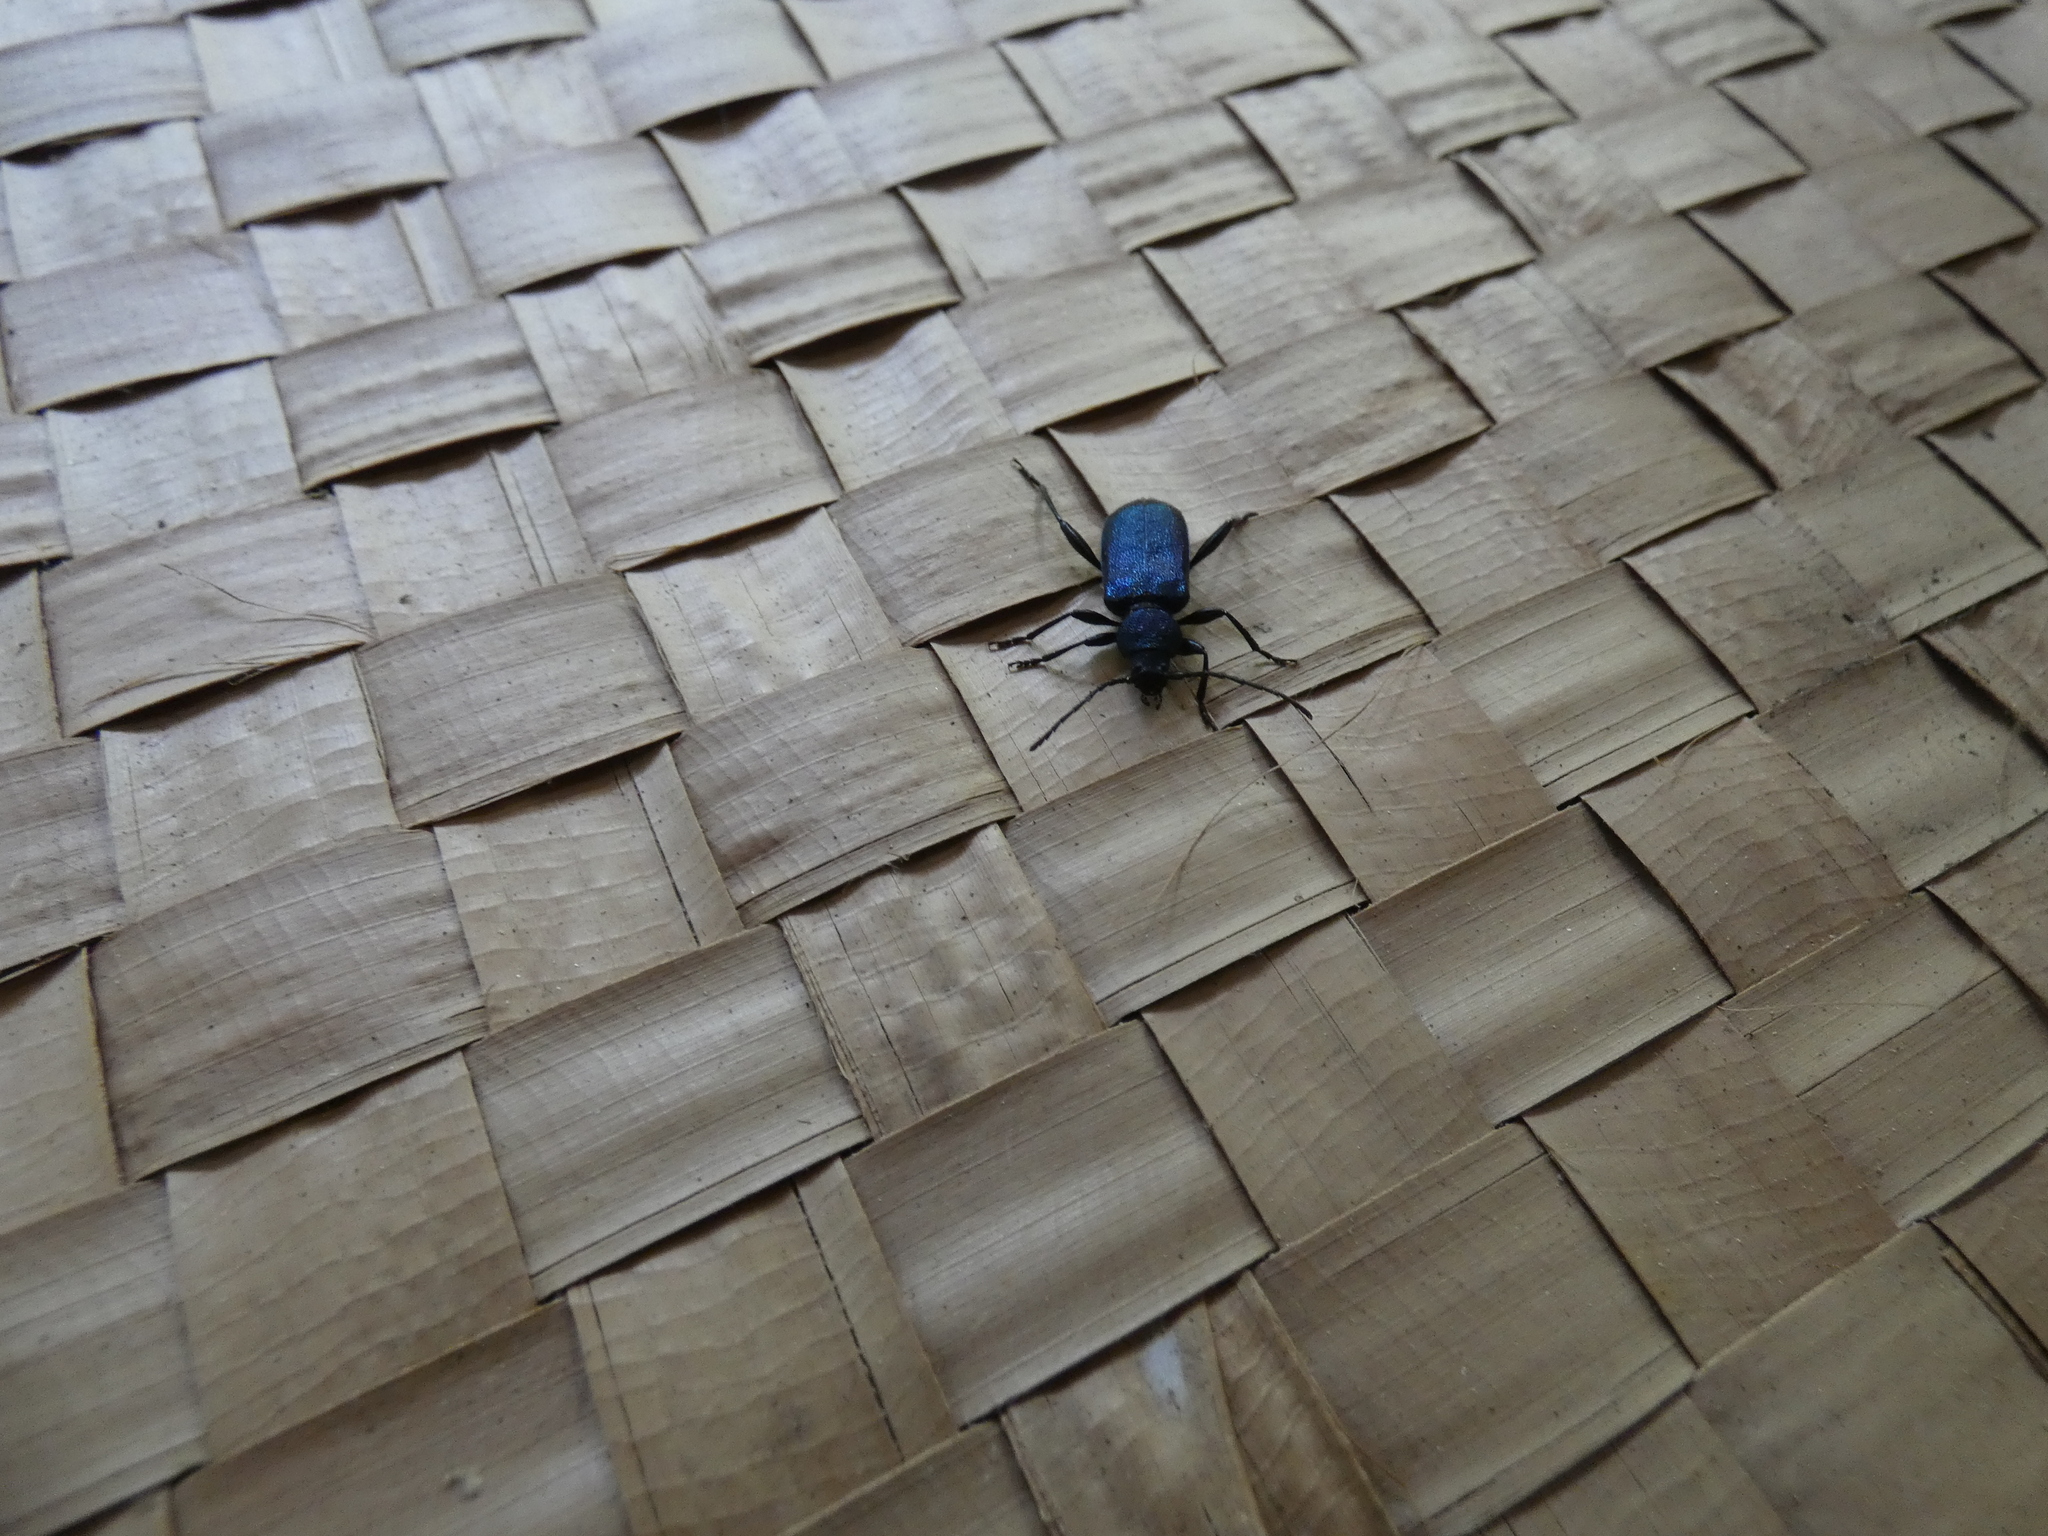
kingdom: Animalia
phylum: Arthropoda
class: Insecta
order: Coleoptera
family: Cerambycidae
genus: Callidium
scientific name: Callidium violaceum
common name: Violet tanbark beetle
